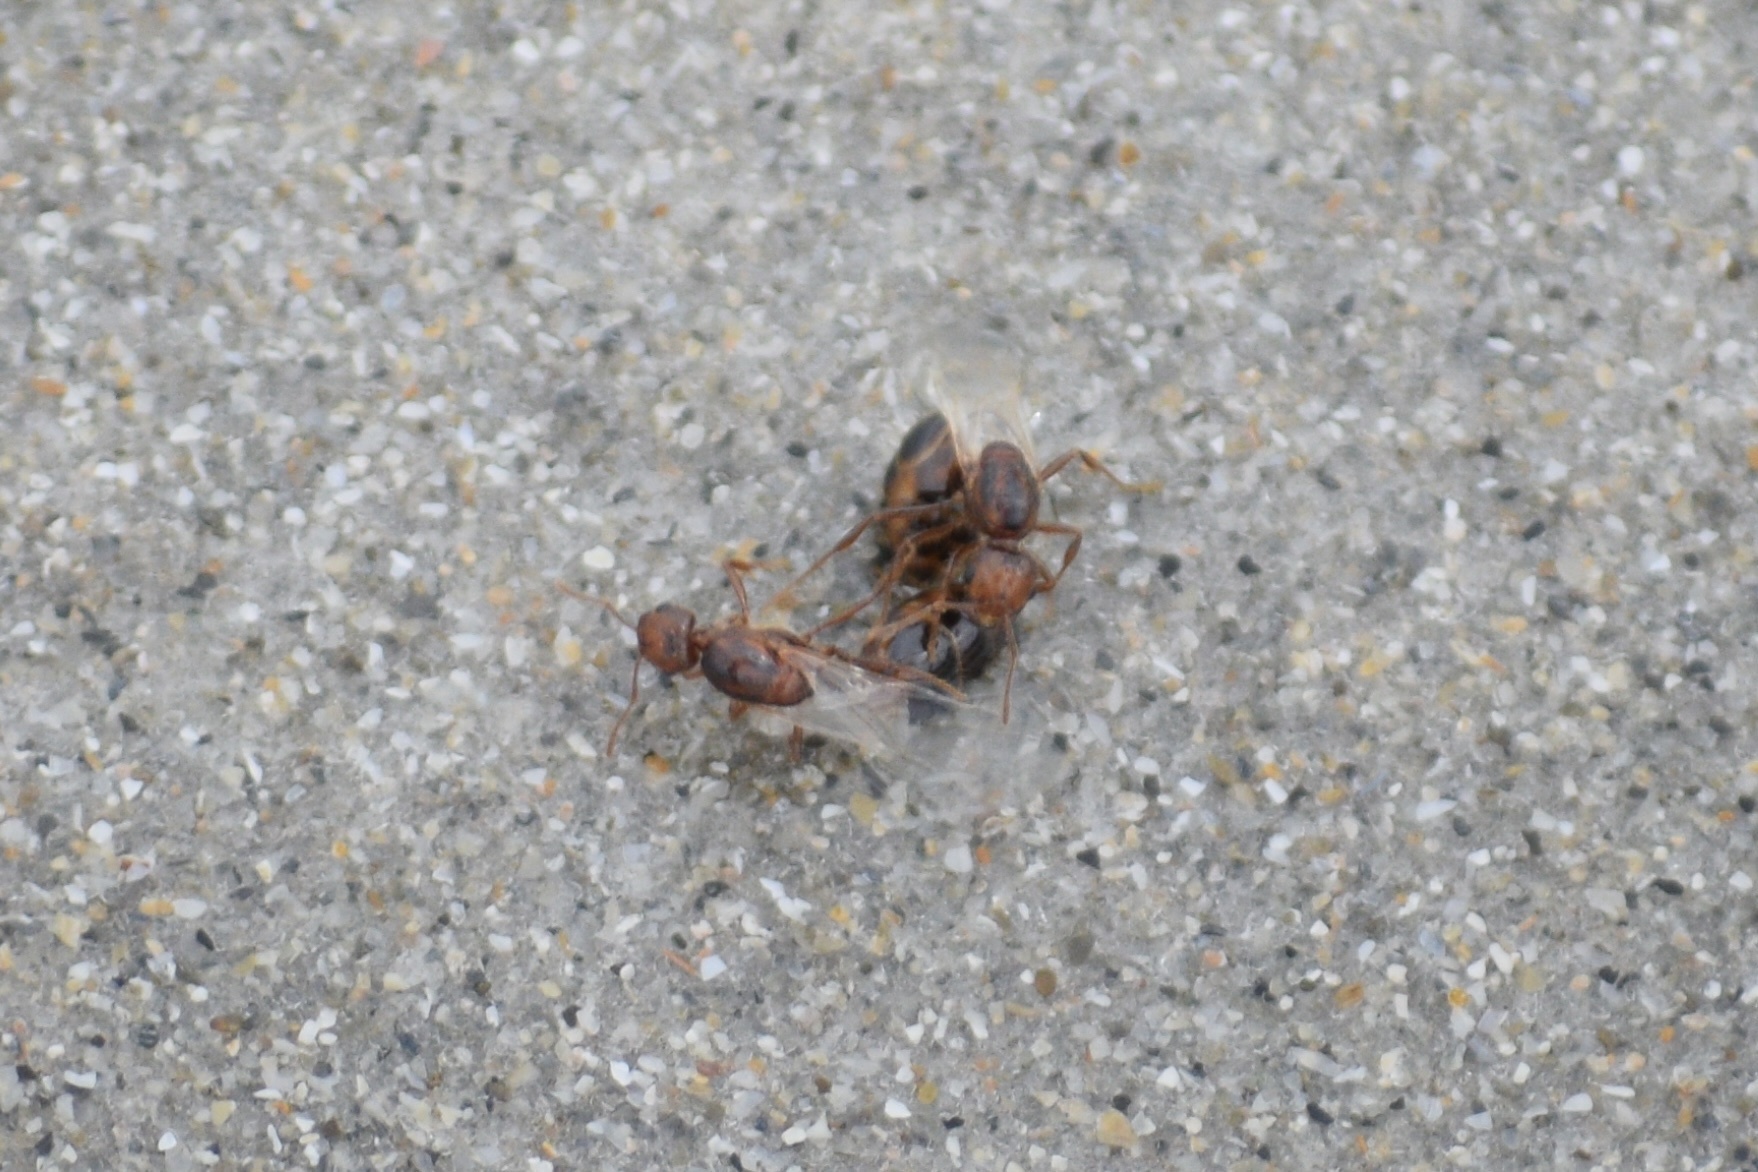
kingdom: Animalia
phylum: Arthropoda
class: Insecta
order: Hymenoptera
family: Formicidae
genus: Solenopsis
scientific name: Solenopsis invicta
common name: Red imported fire ant
